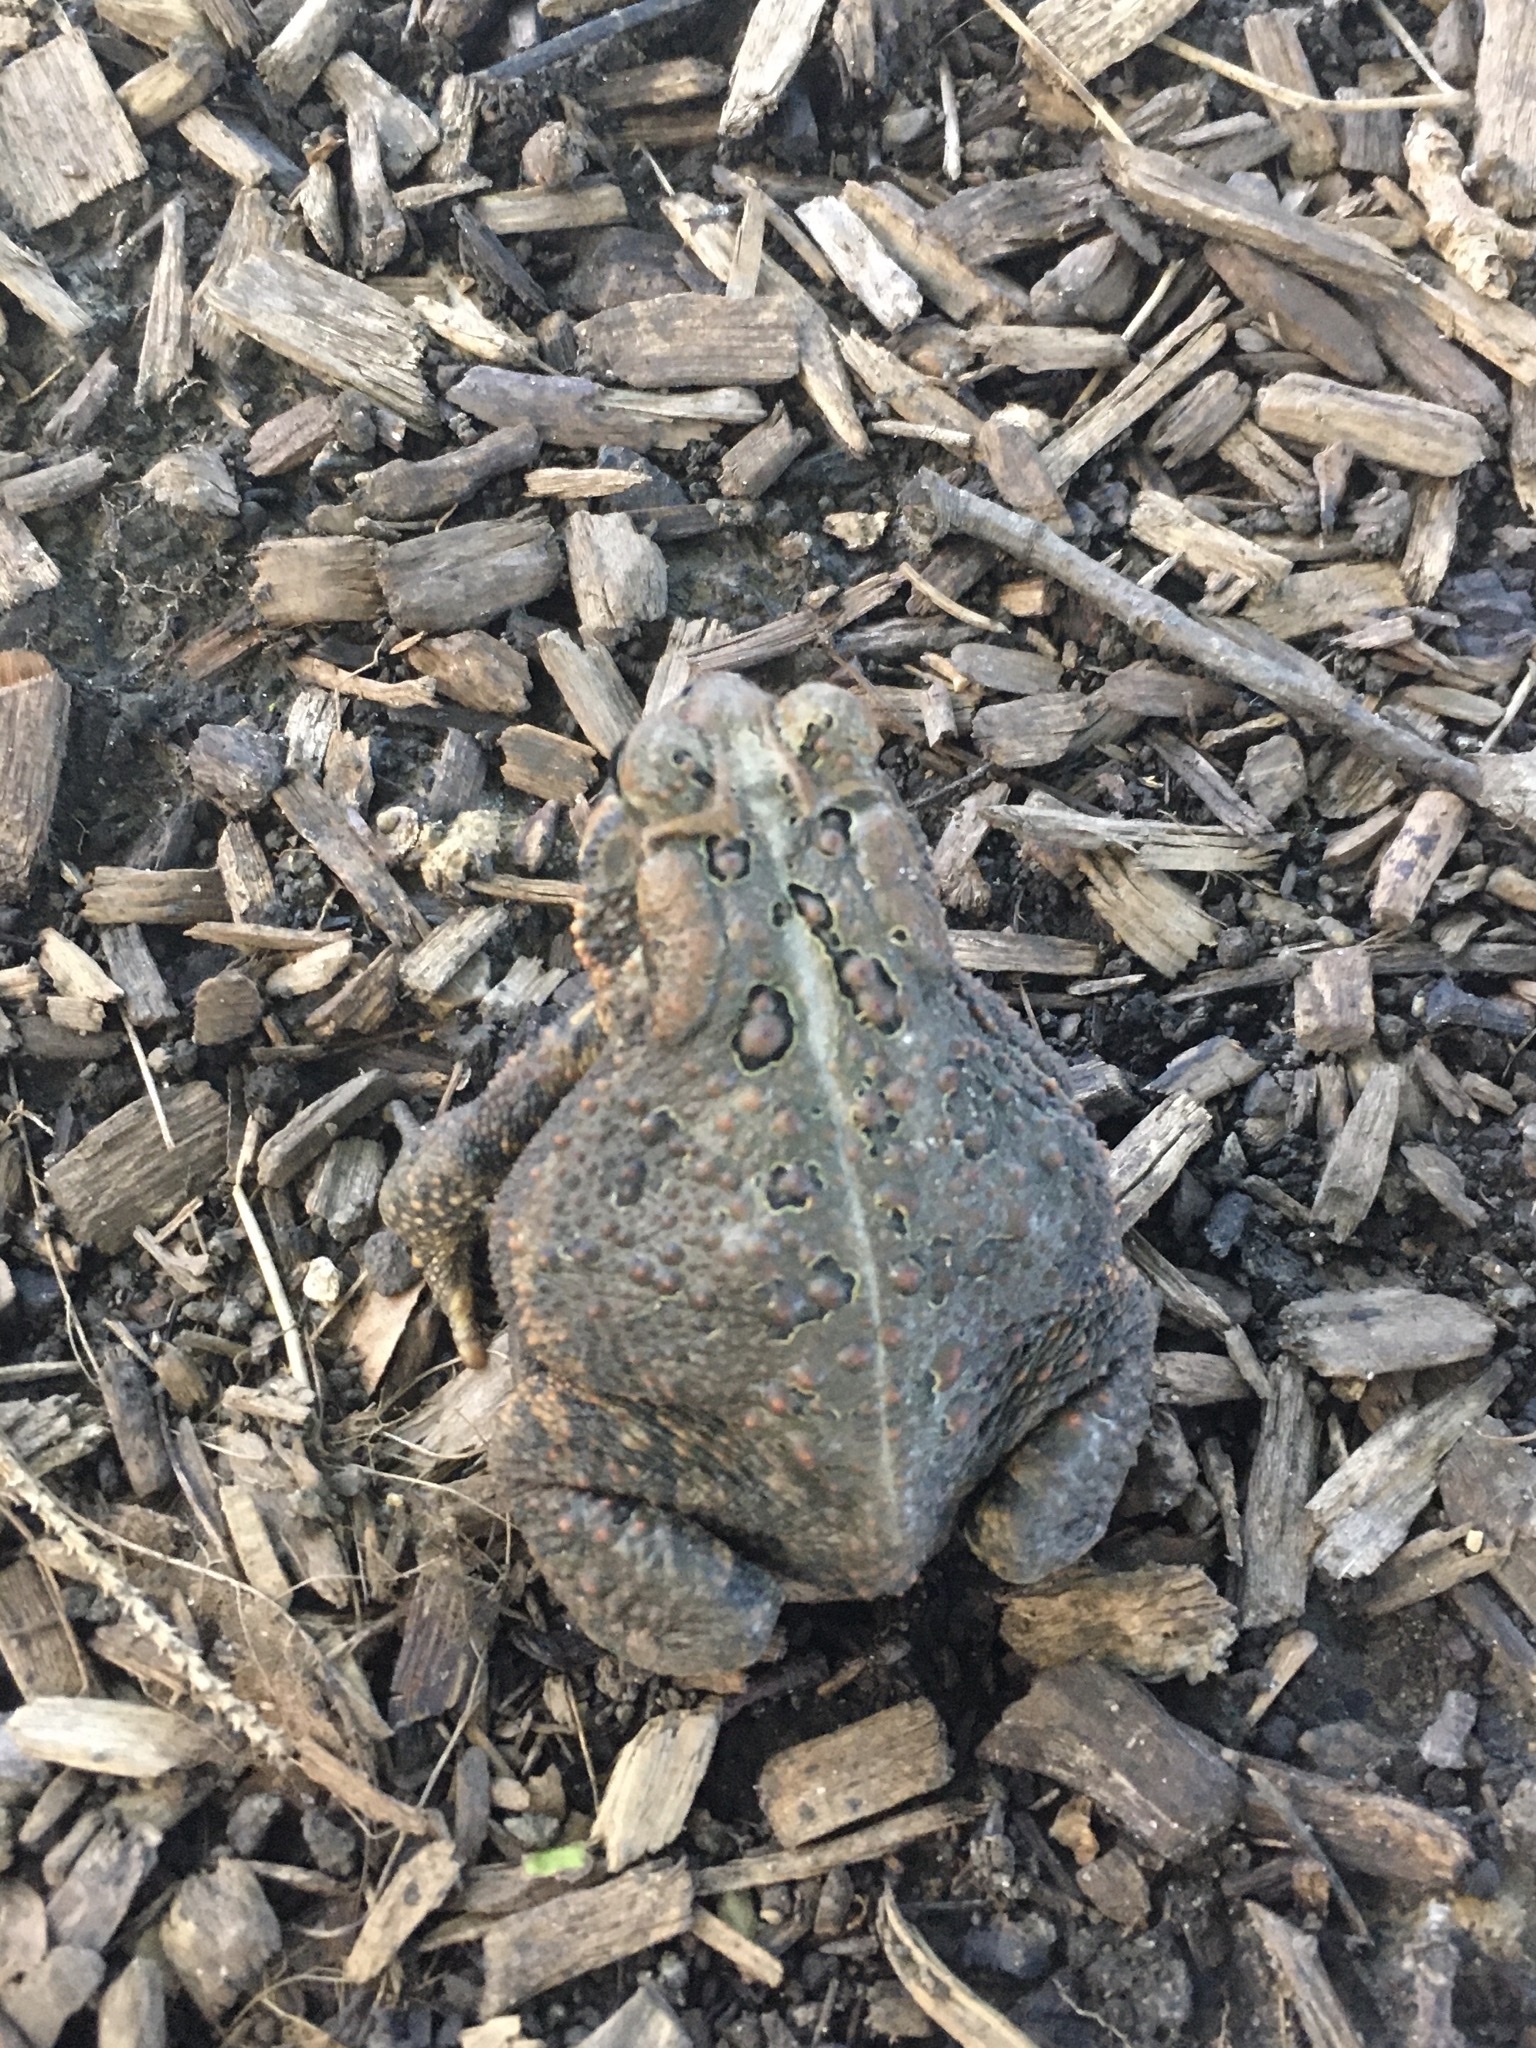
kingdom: Animalia
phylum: Chordata
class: Amphibia
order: Anura
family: Bufonidae
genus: Anaxyrus
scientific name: Anaxyrus americanus
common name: American toad
